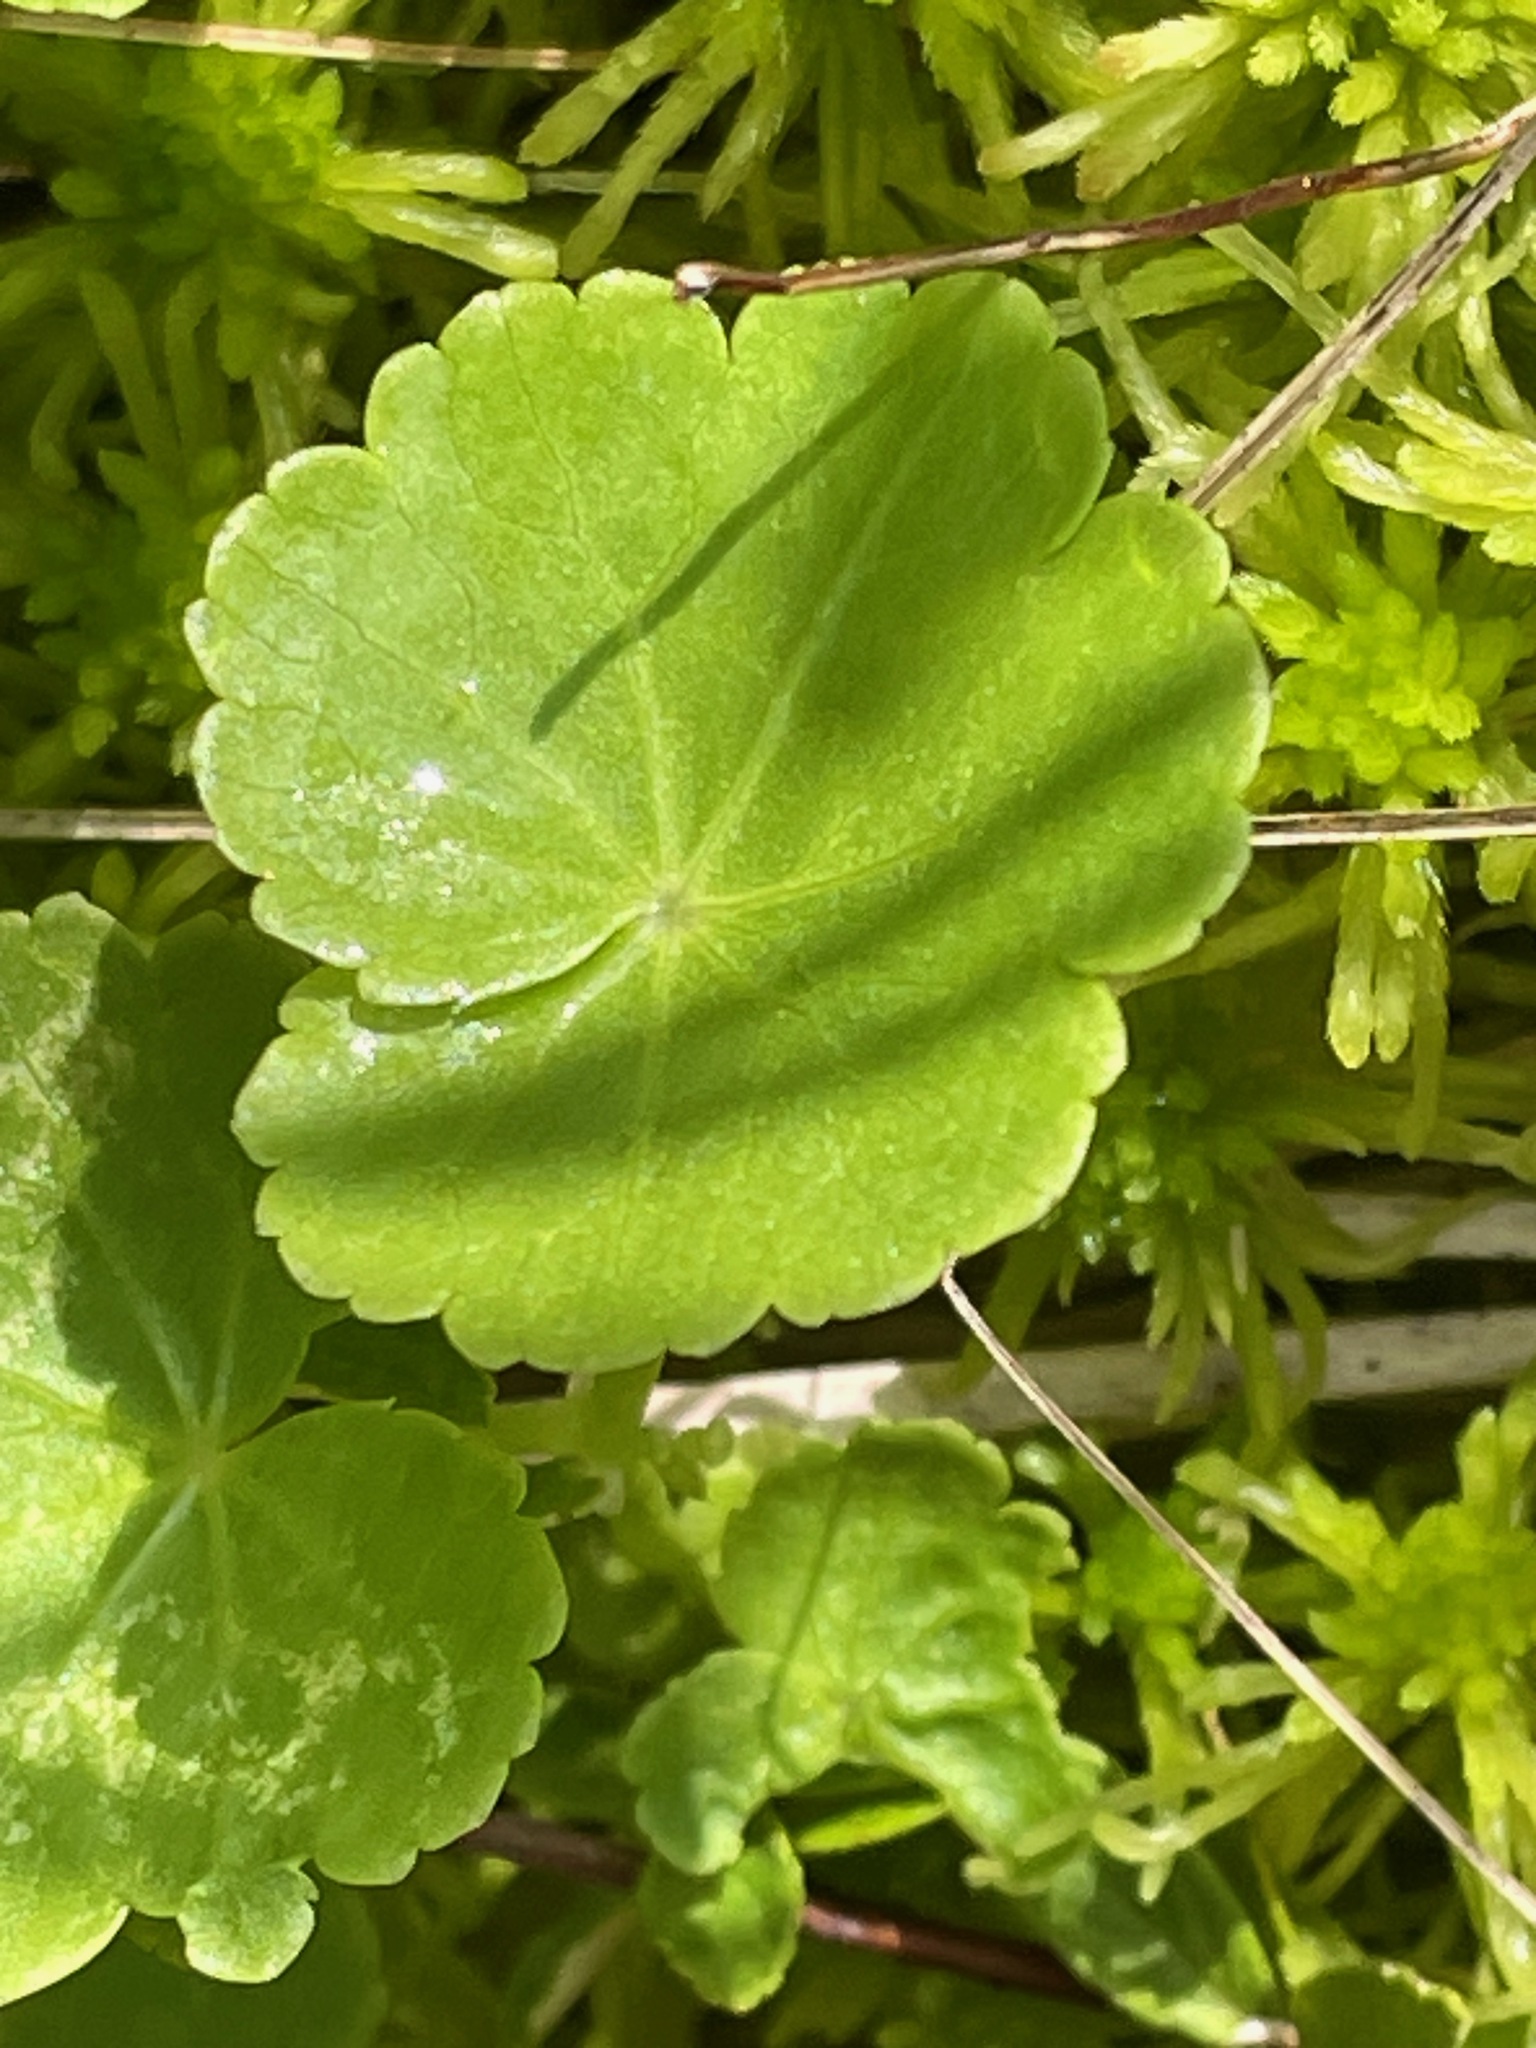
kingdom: Plantae
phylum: Tracheophyta
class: Magnoliopsida
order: Apiales
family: Araliaceae
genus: Hydrocotyle
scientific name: Hydrocotyle americana
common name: American water-pennywort
